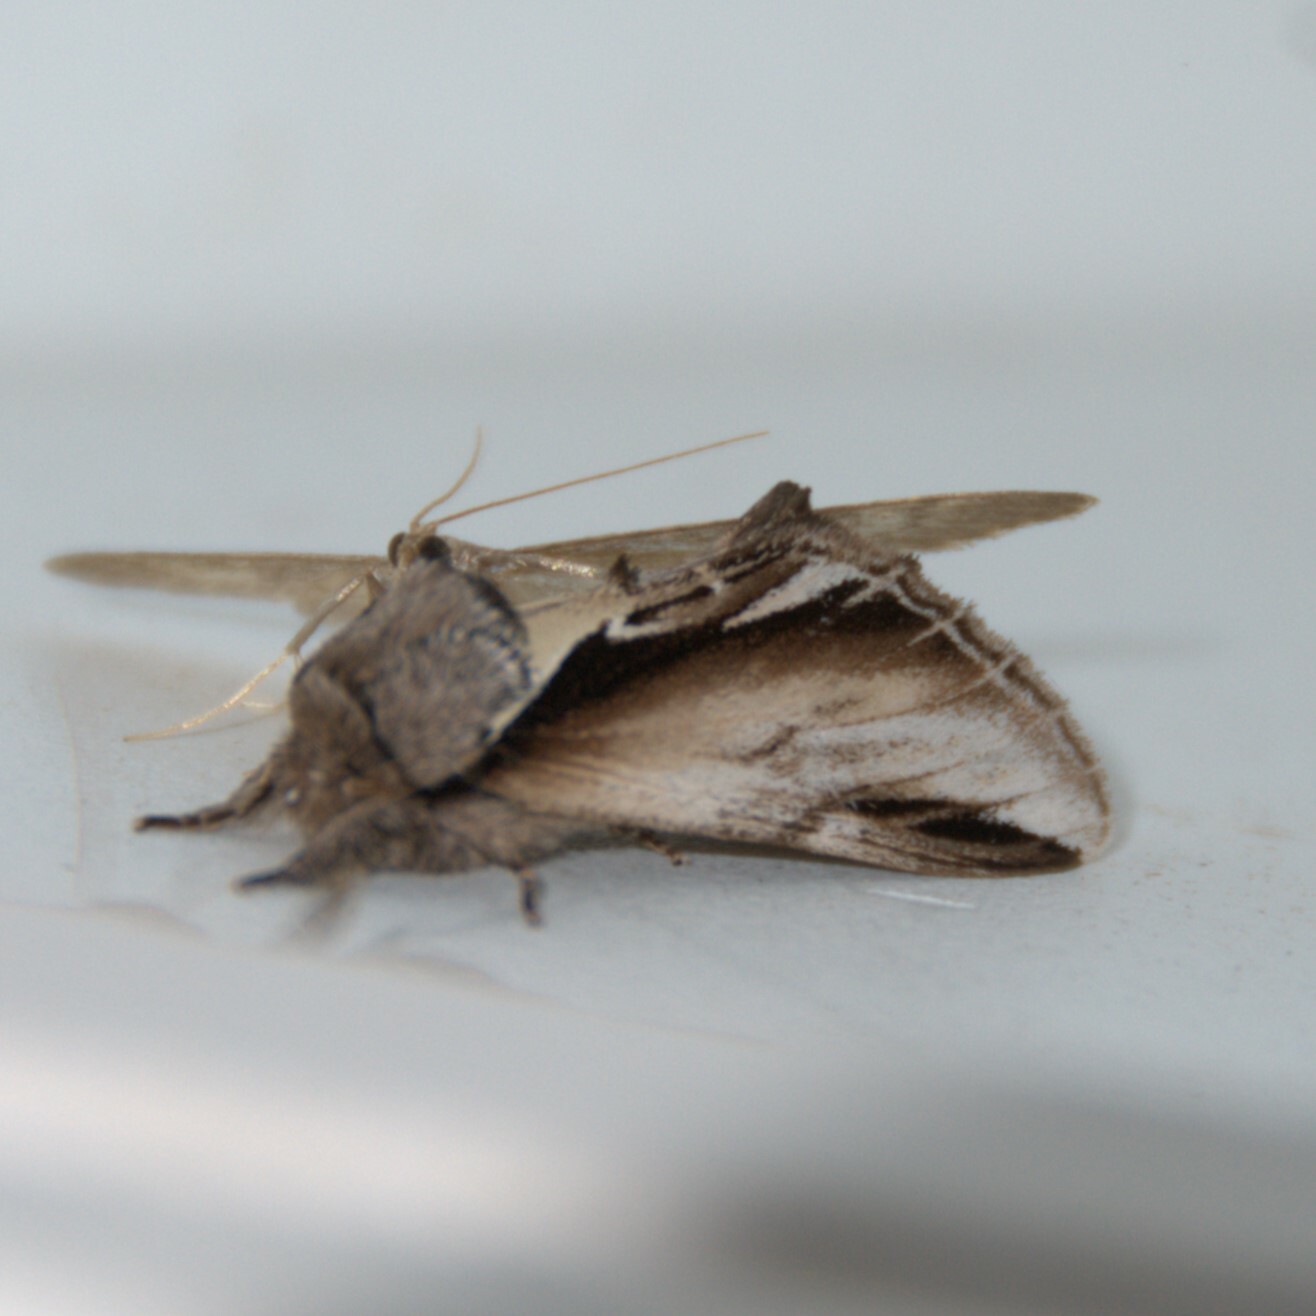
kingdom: Animalia
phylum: Arthropoda
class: Insecta
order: Lepidoptera
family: Notodontidae
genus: Pheosia
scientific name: Pheosia gnoma
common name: Lesser swallow prominent
